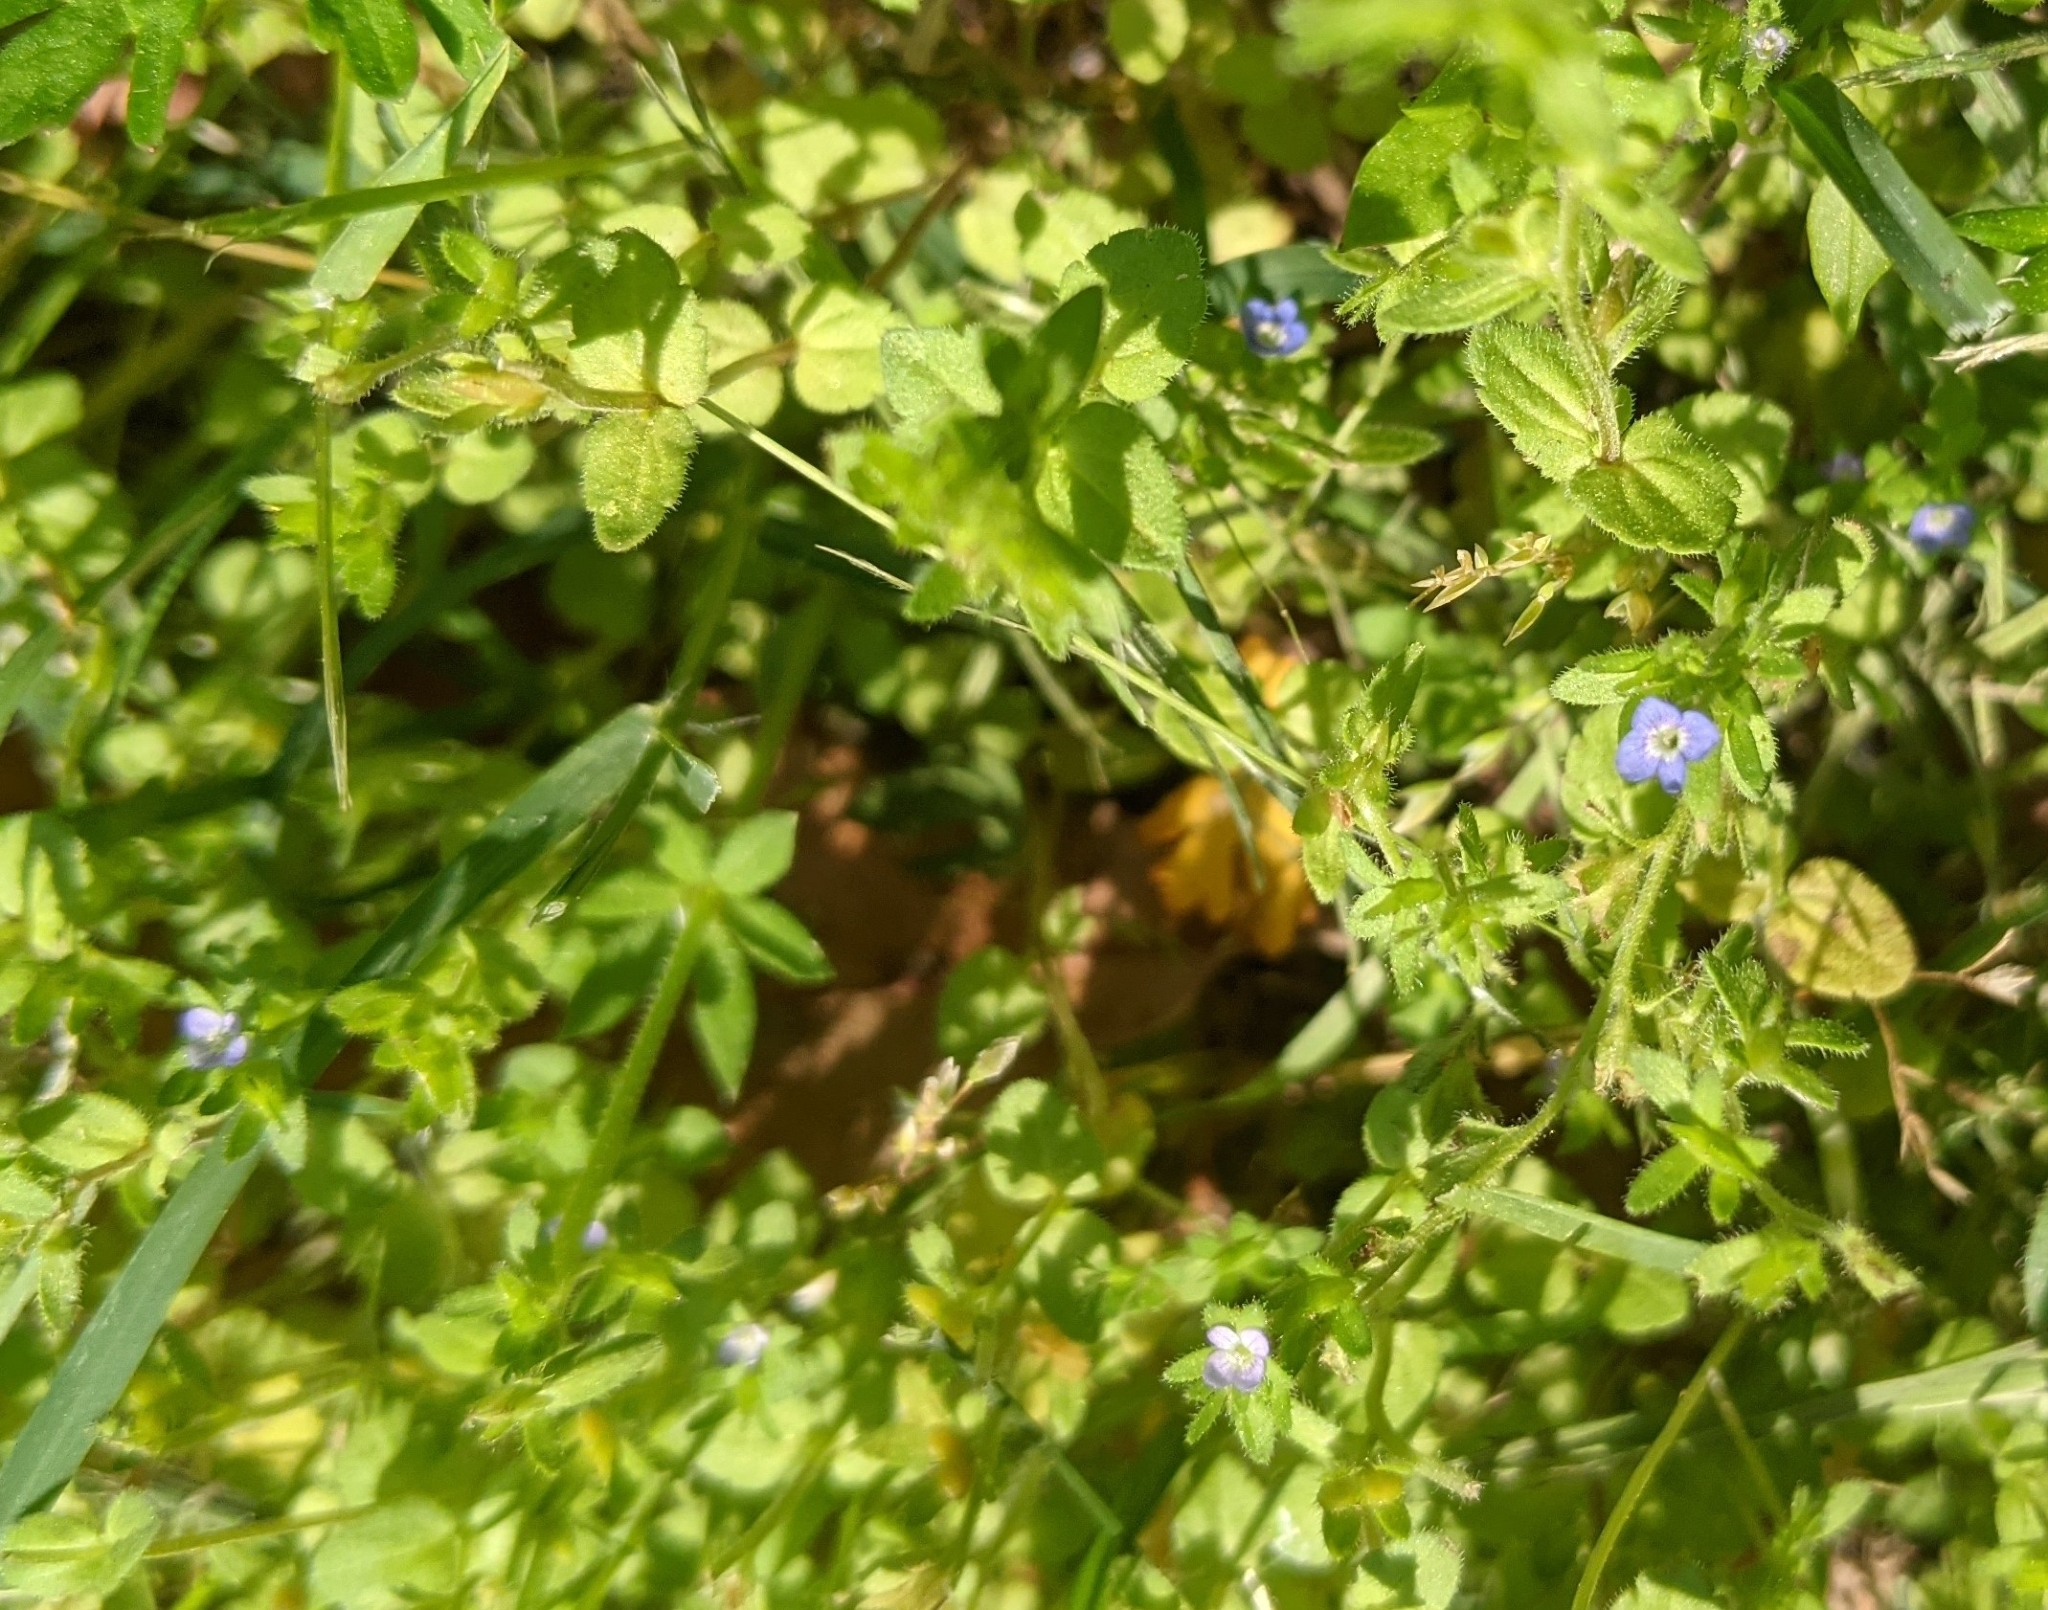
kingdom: Plantae
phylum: Tracheophyta
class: Magnoliopsida
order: Lamiales
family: Plantaginaceae
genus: Veronica
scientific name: Veronica arvensis
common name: Corn speedwell
